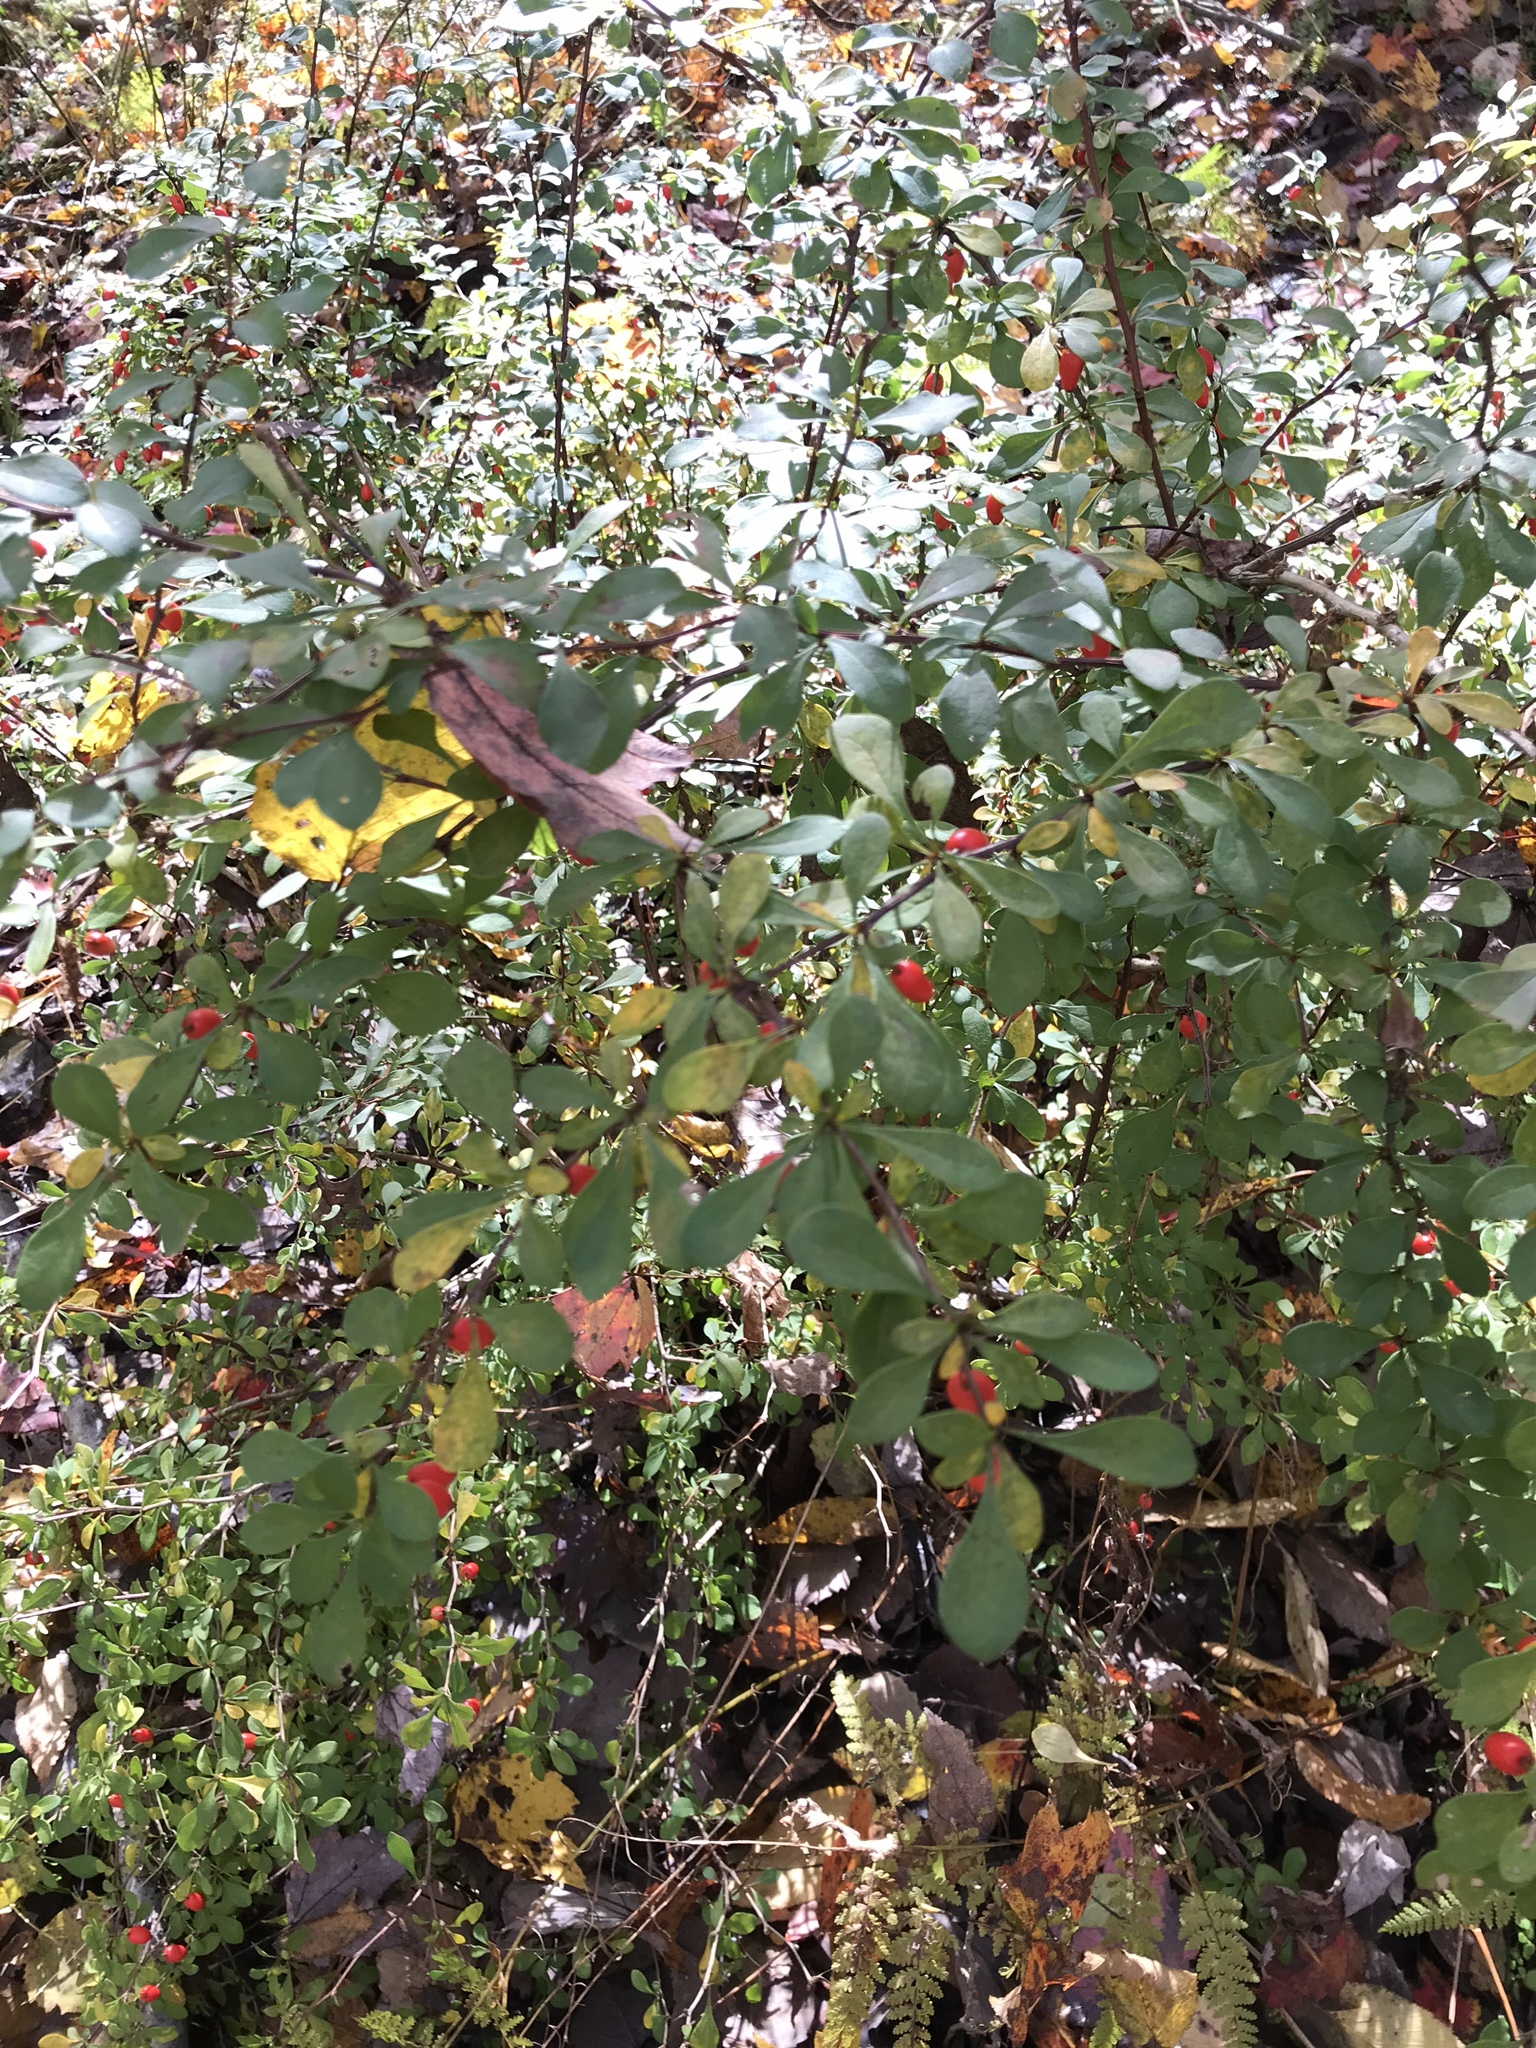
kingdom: Plantae
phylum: Tracheophyta
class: Magnoliopsida
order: Ranunculales
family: Berberidaceae
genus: Berberis
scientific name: Berberis thunbergii
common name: Japanese barberry
